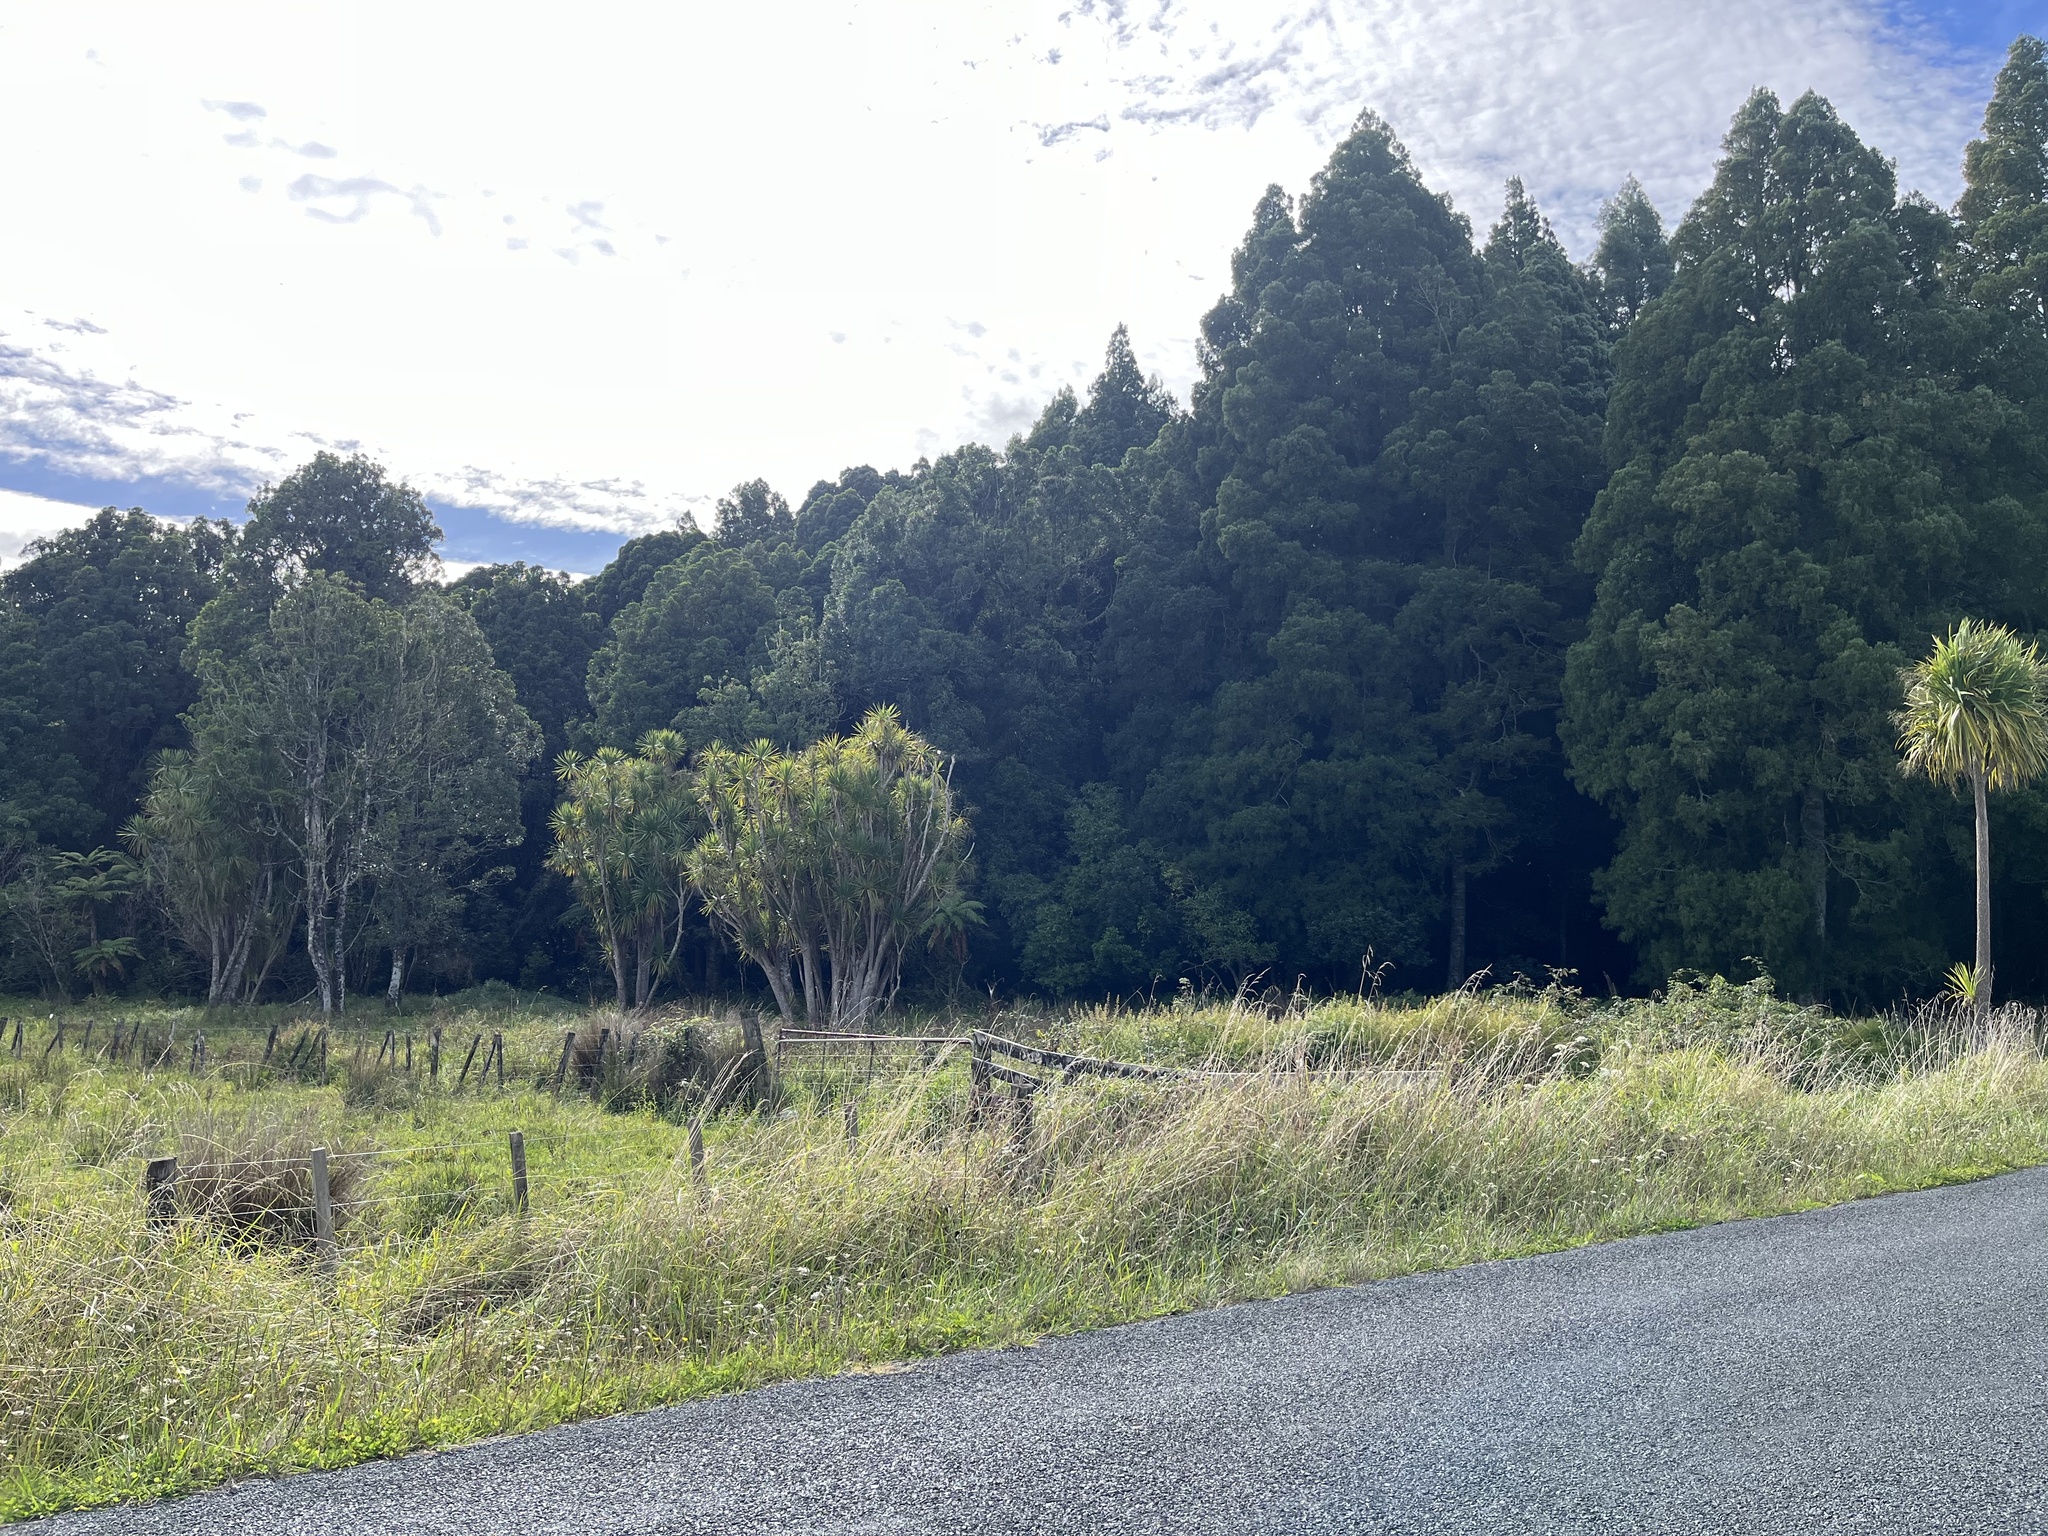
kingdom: Plantae
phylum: Tracheophyta
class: Pinopsida
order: Pinales
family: Podocarpaceae
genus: Dacrycarpus
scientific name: Dacrycarpus dacrydioides
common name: White pine
